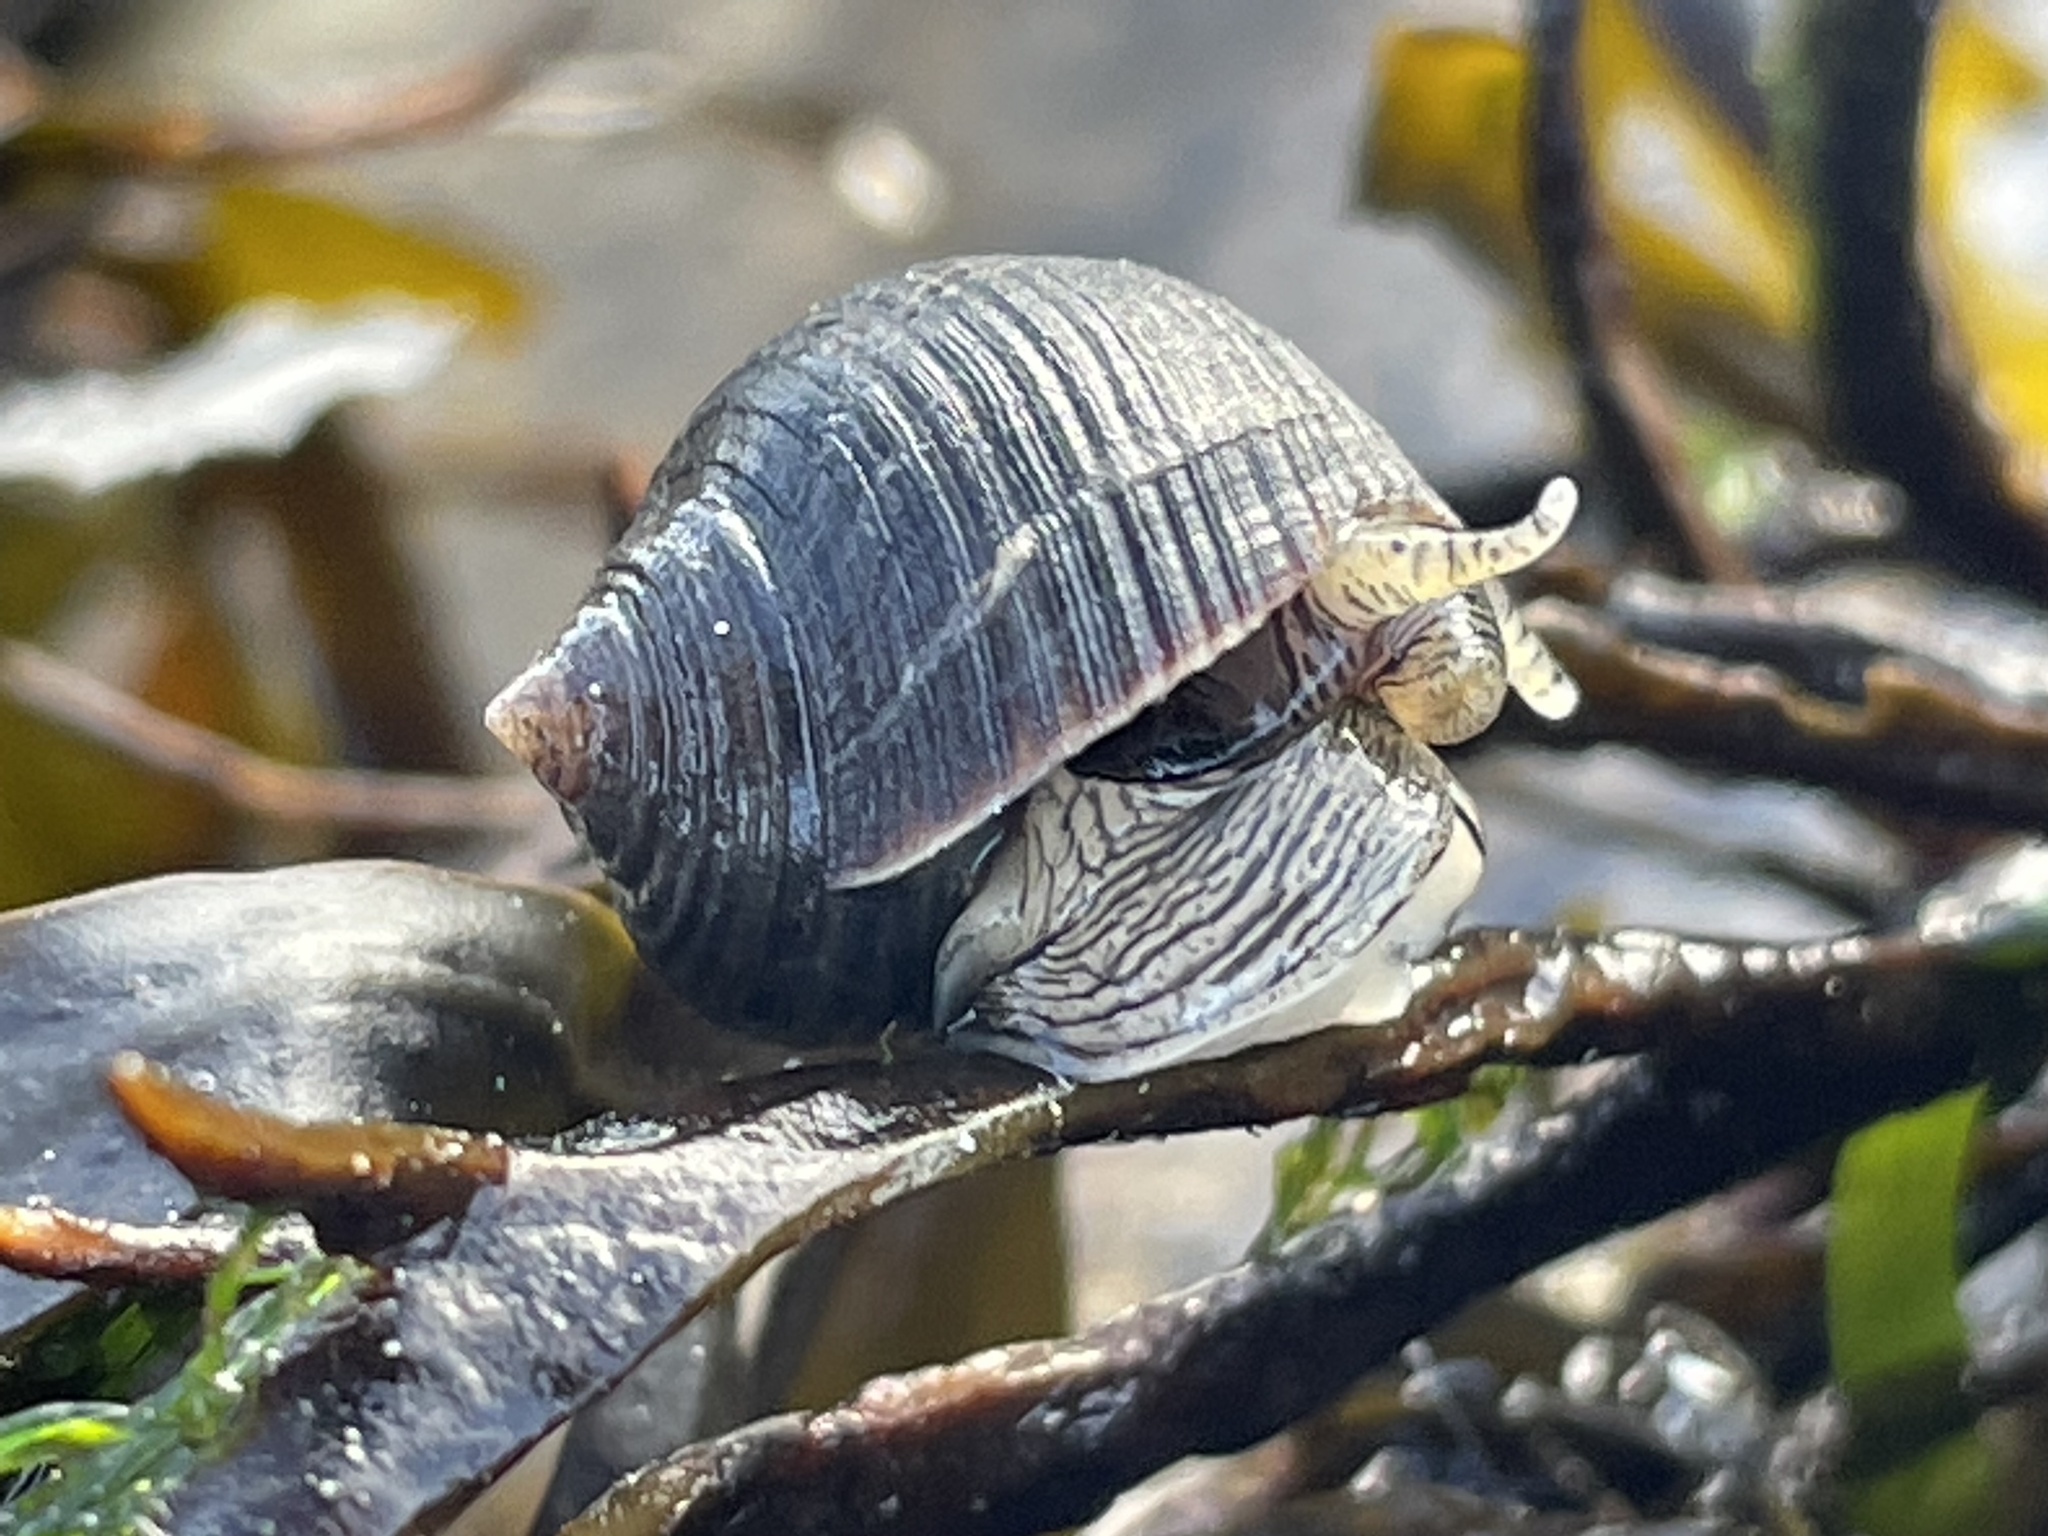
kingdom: Animalia
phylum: Mollusca
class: Gastropoda
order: Littorinimorpha
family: Littorinidae
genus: Littorina
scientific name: Littorina littorea
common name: Common periwinkle
